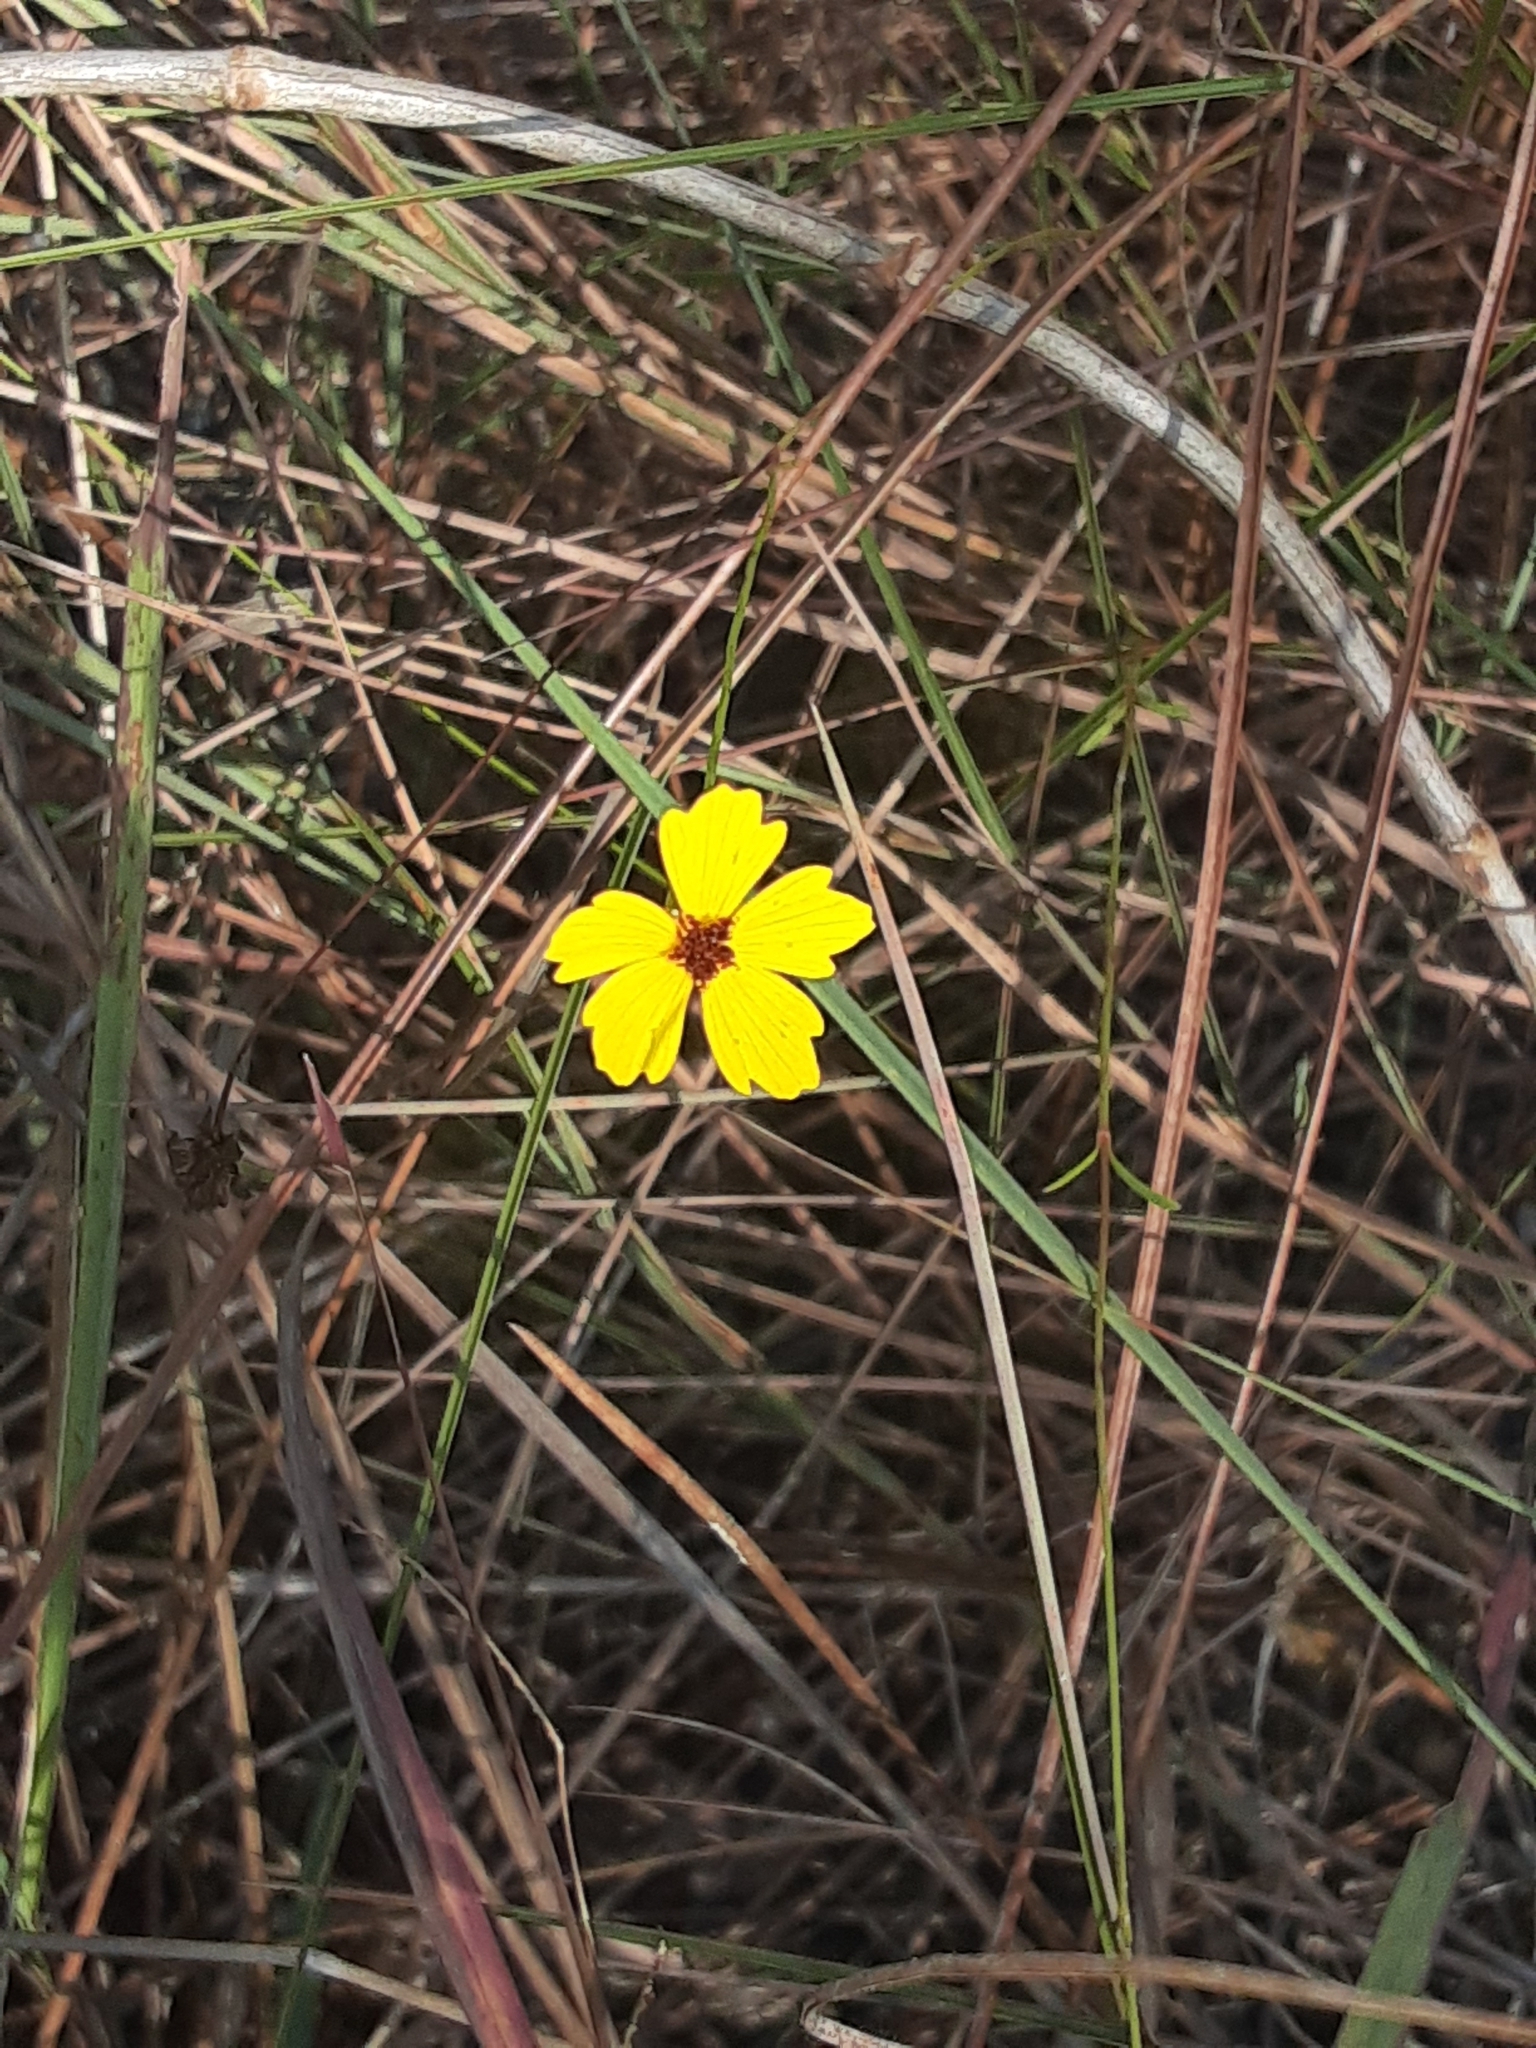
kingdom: Plantae
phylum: Tracheophyta
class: Magnoliopsida
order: Asterales
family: Asteraceae
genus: Coreopsis
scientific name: Coreopsis leavenworthii
